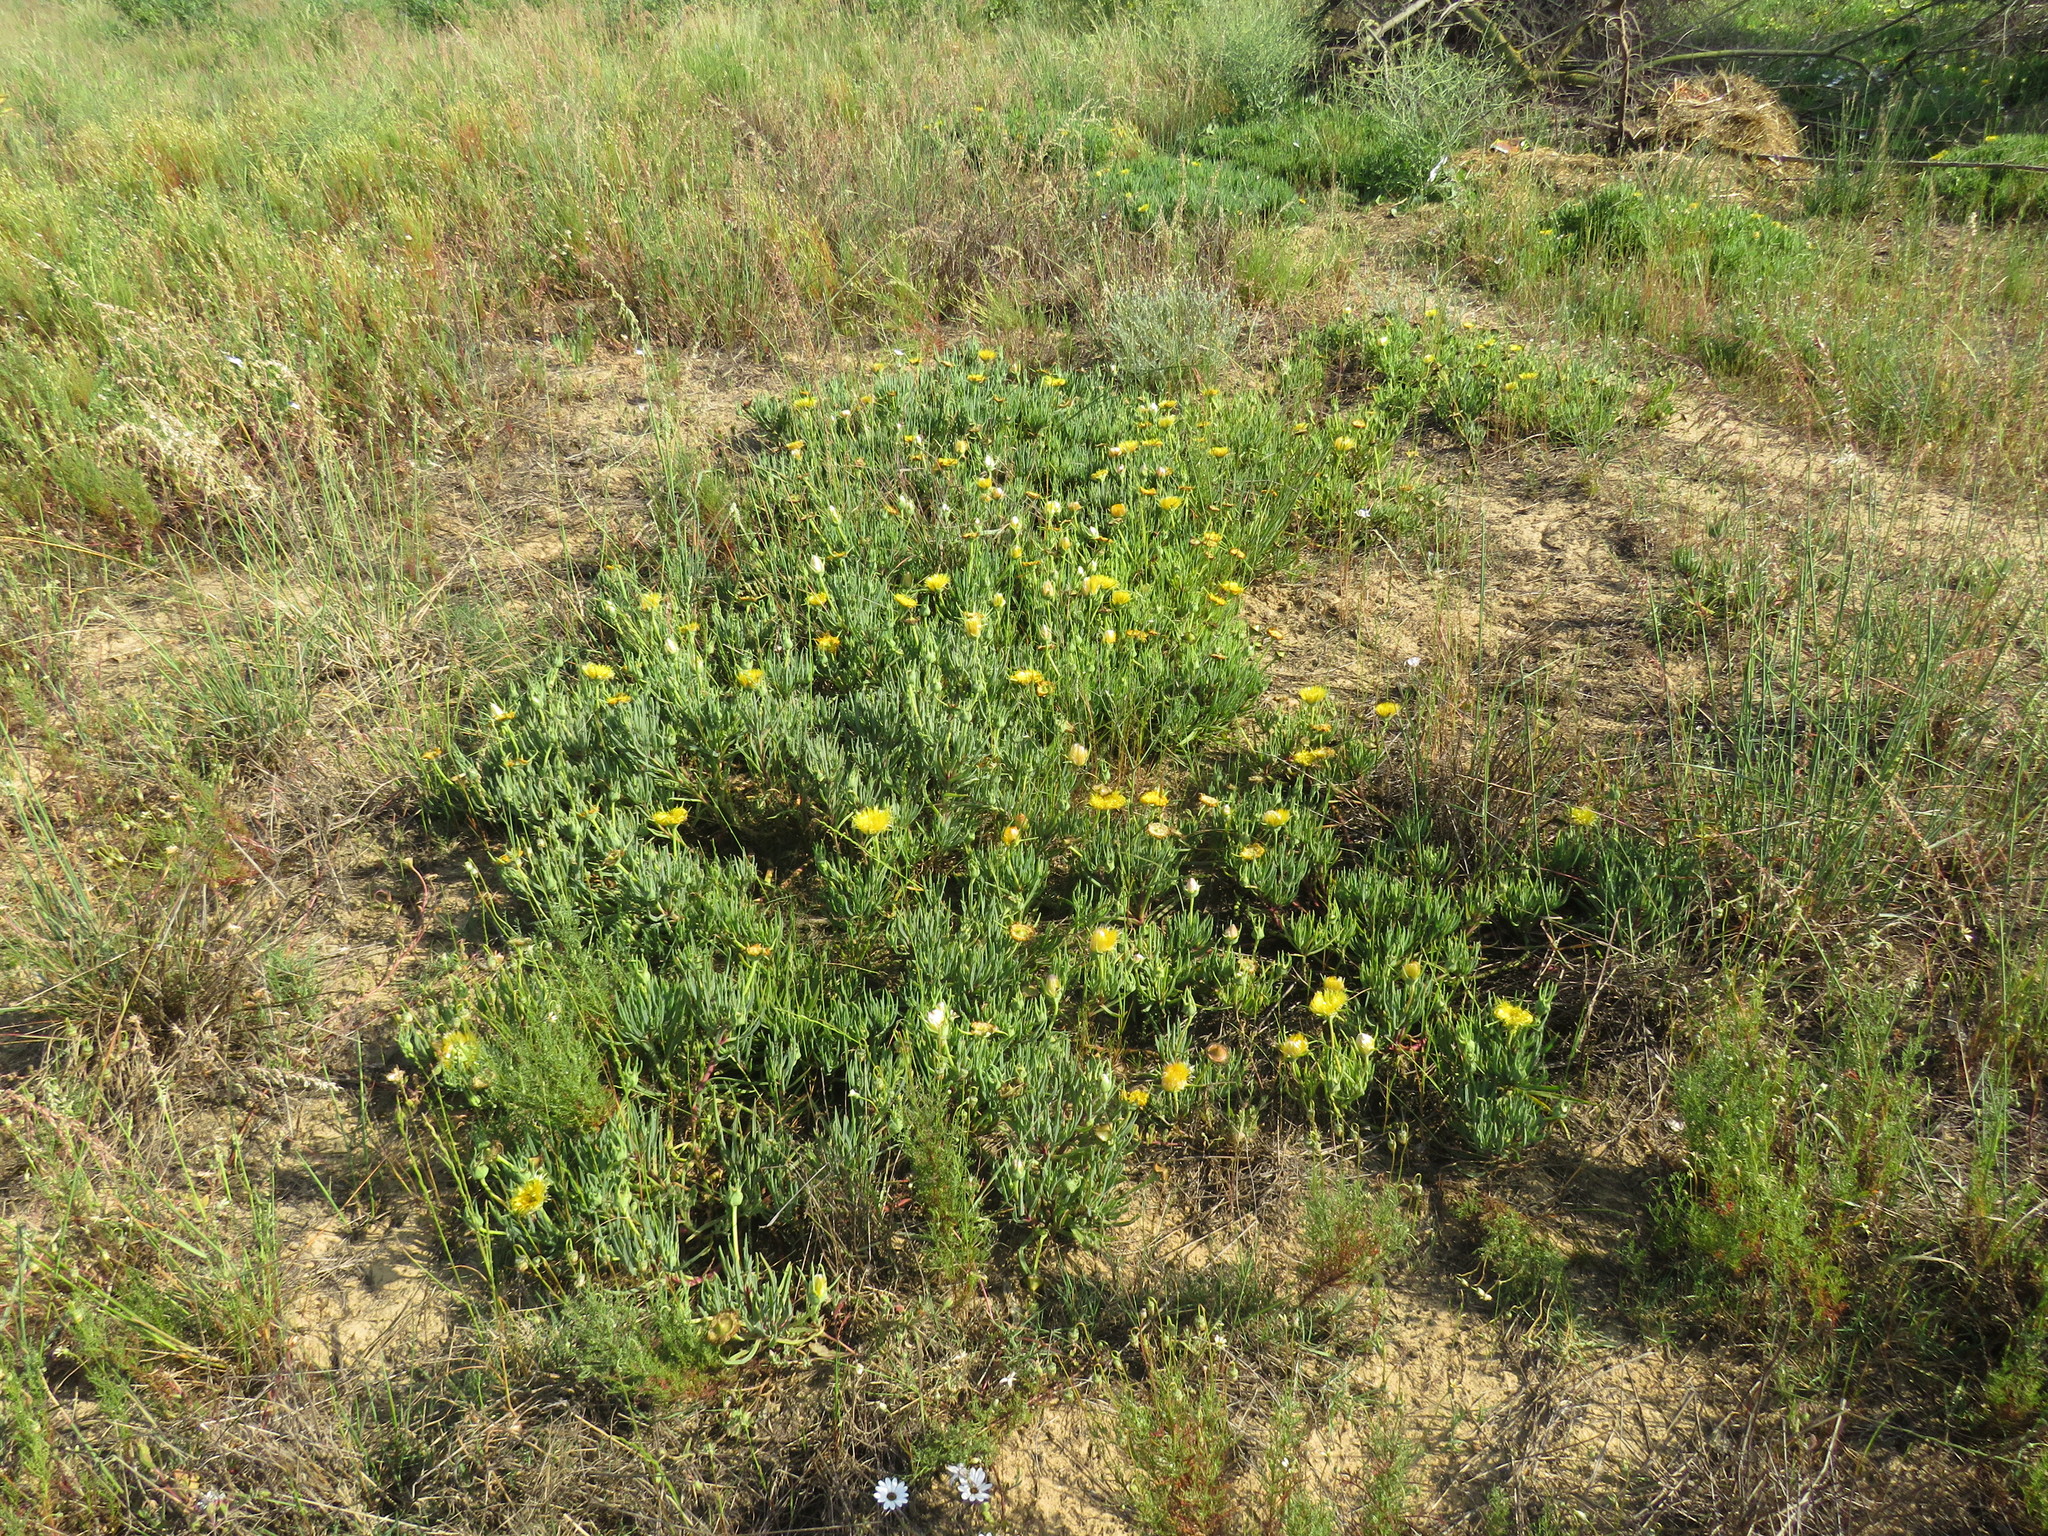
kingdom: Plantae
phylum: Tracheophyta
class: Magnoliopsida
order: Caryophyllales
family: Aizoaceae
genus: Conicosia
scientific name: Conicosia pugioniformis
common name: Narrow-leaved iceplant
